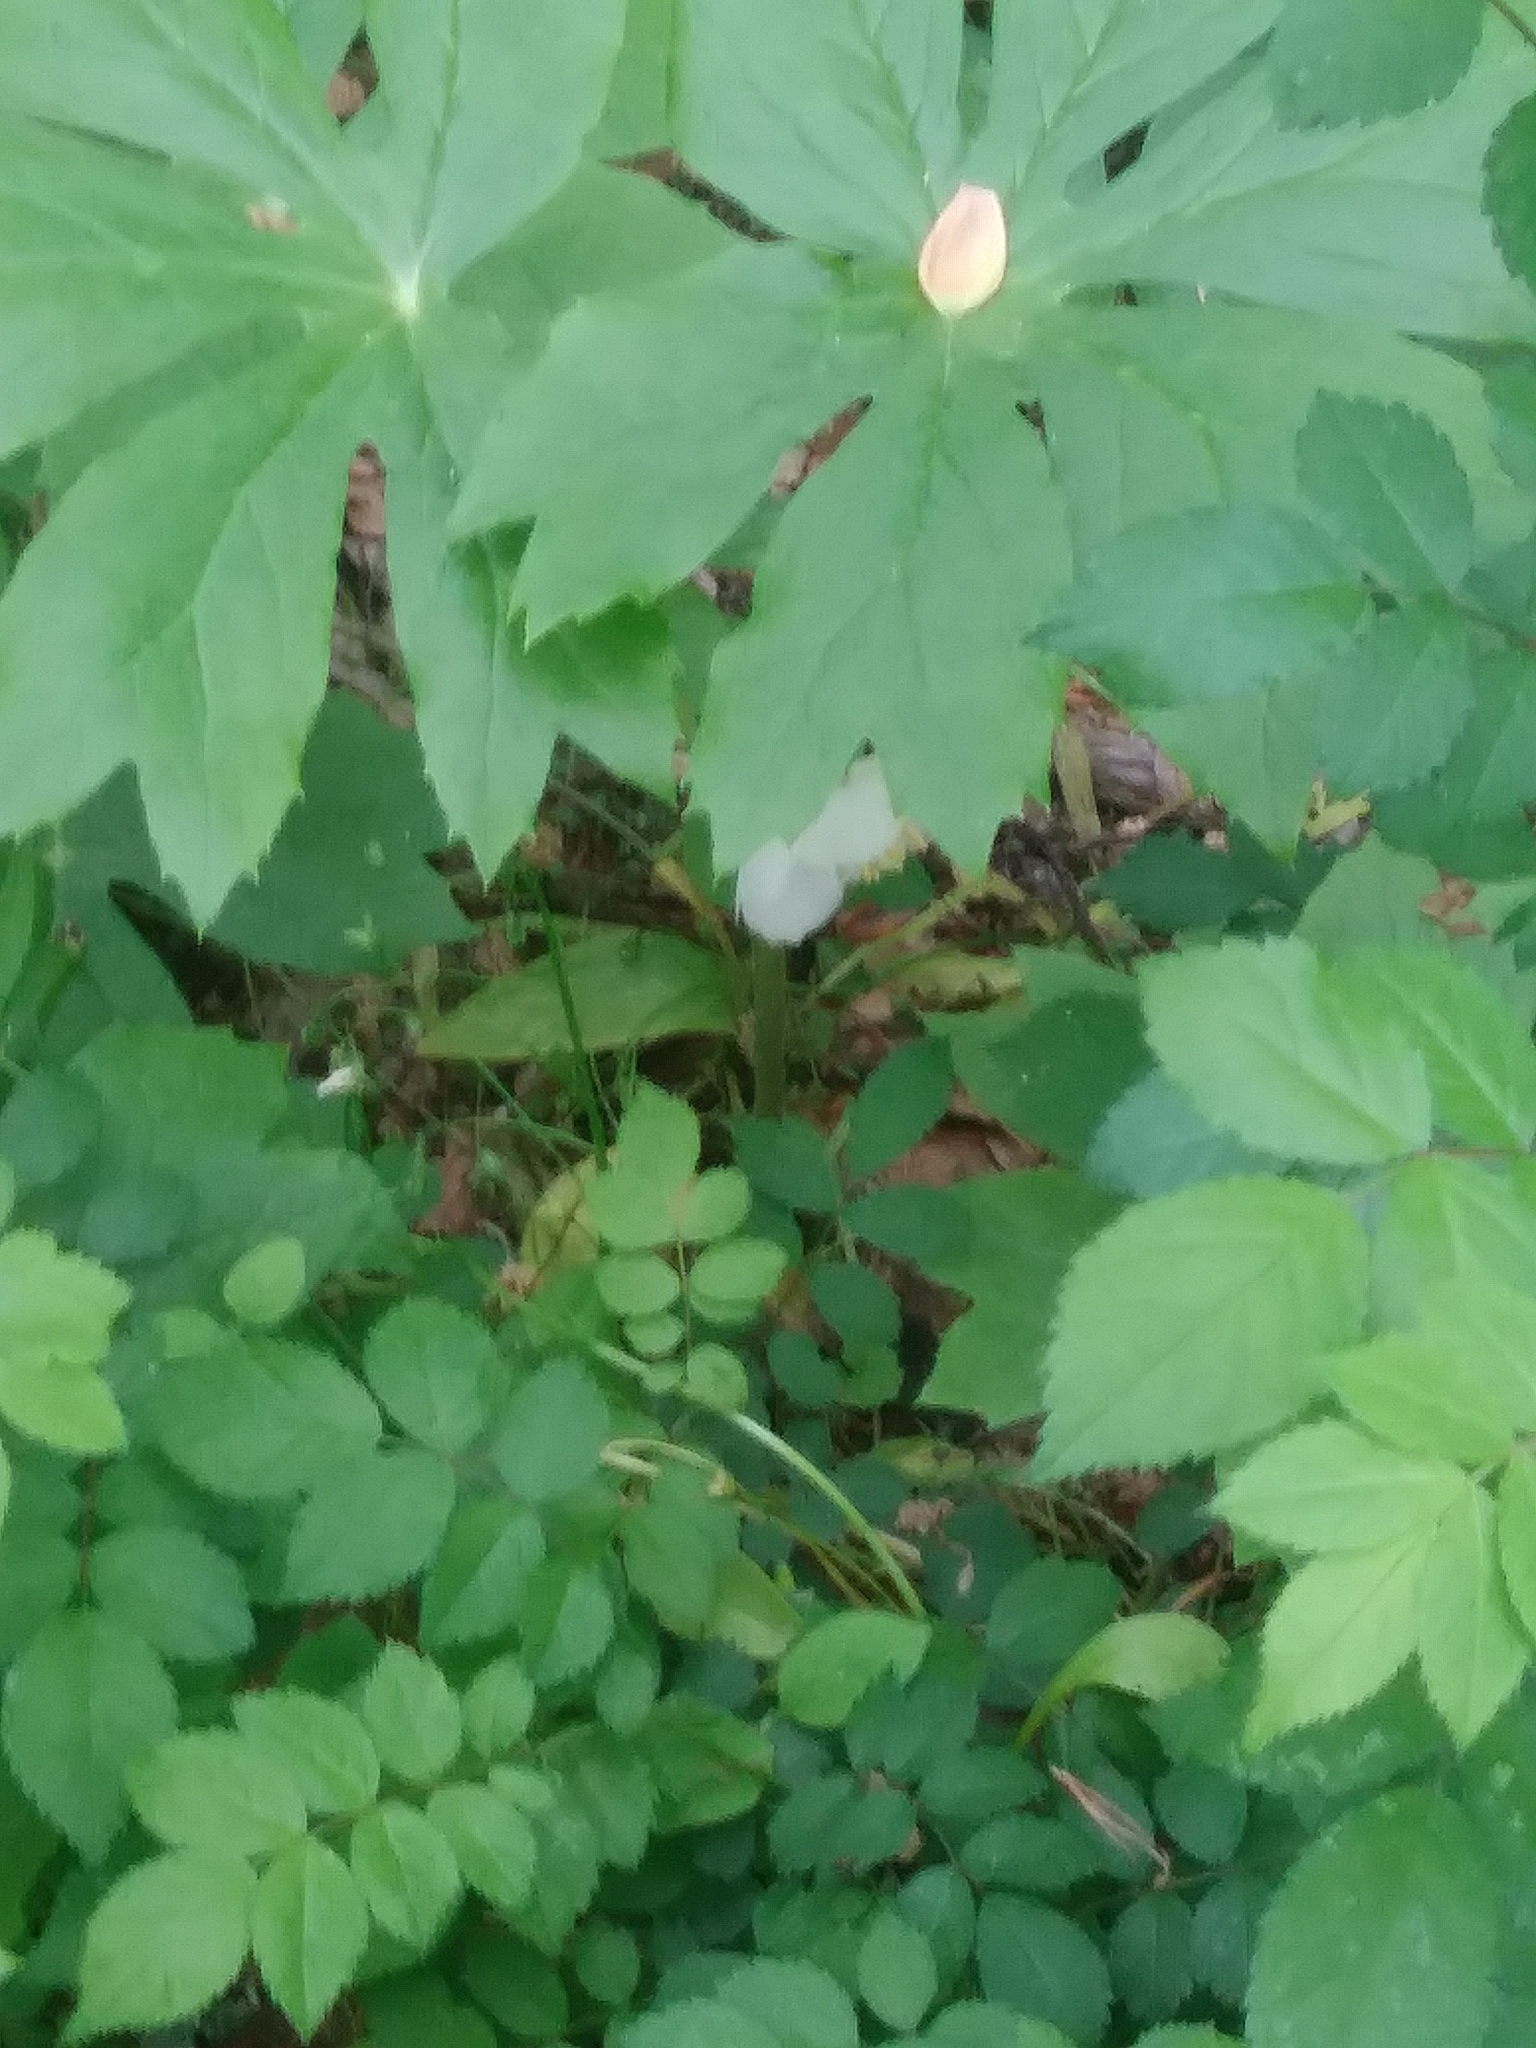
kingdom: Plantae
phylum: Tracheophyta
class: Magnoliopsida
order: Ranunculales
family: Berberidaceae
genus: Podophyllum
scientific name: Podophyllum peltatum
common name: Wild mandrake
